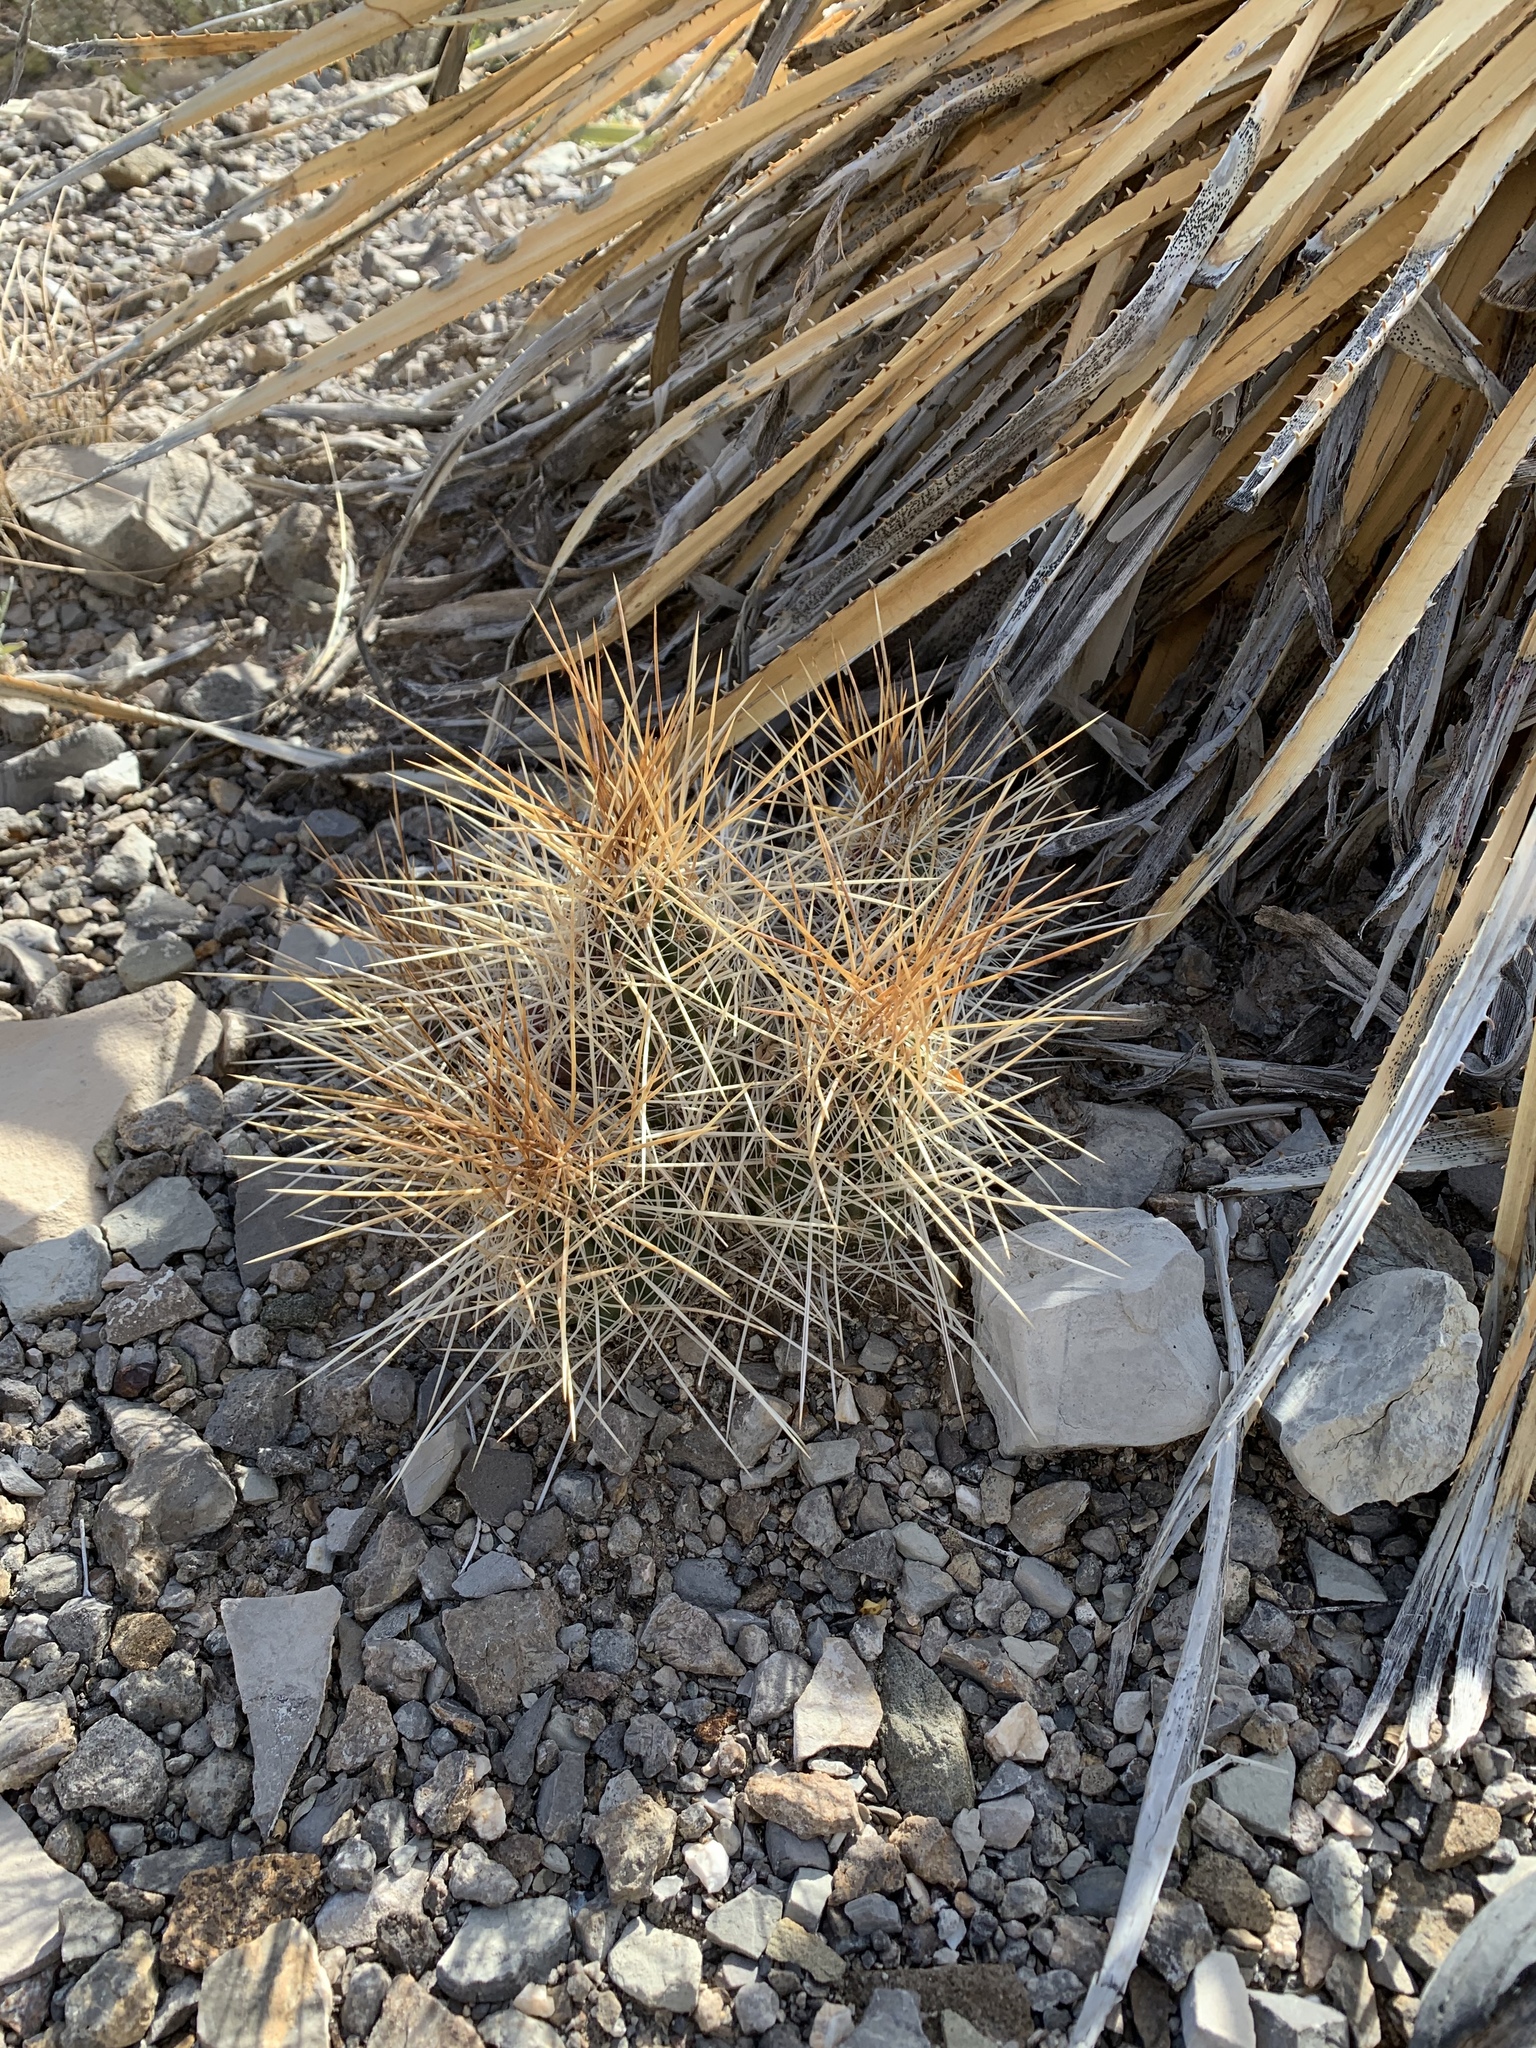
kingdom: Plantae
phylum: Tracheophyta
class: Magnoliopsida
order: Caryophyllales
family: Cactaceae
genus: Echinocereus
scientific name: Echinocereus stramineus
